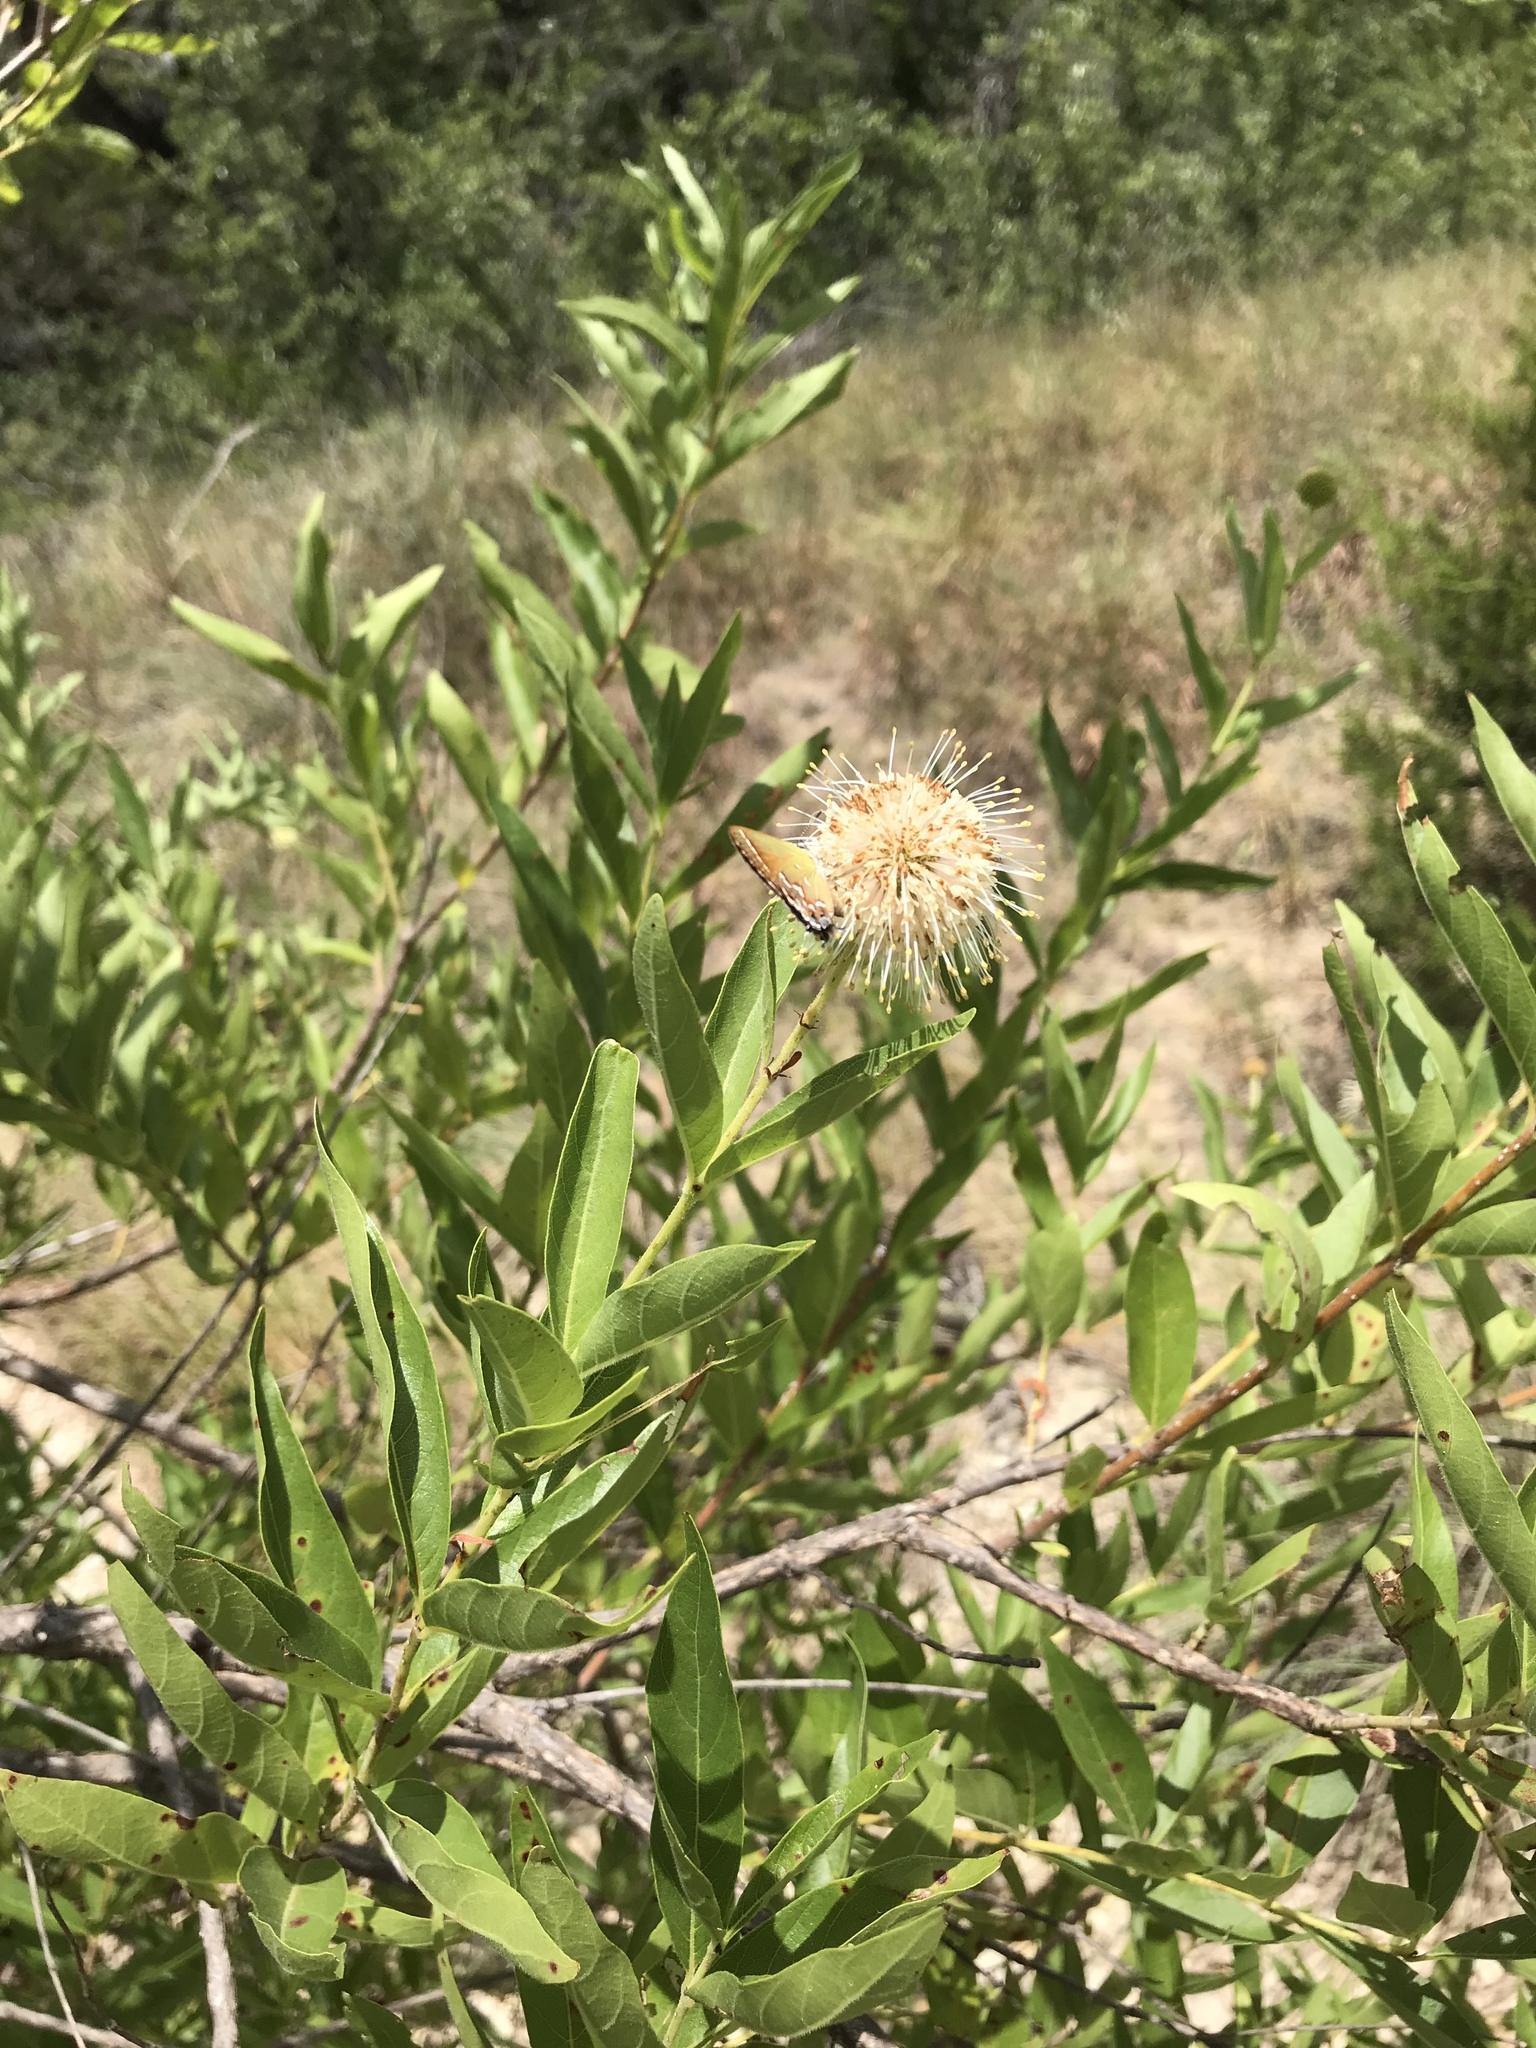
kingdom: Plantae
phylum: Tracheophyta
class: Magnoliopsida
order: Gentianales
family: Rubiaceae
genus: Cephalanthus
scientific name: Cephalanthus occidentalis
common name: Button-willow
